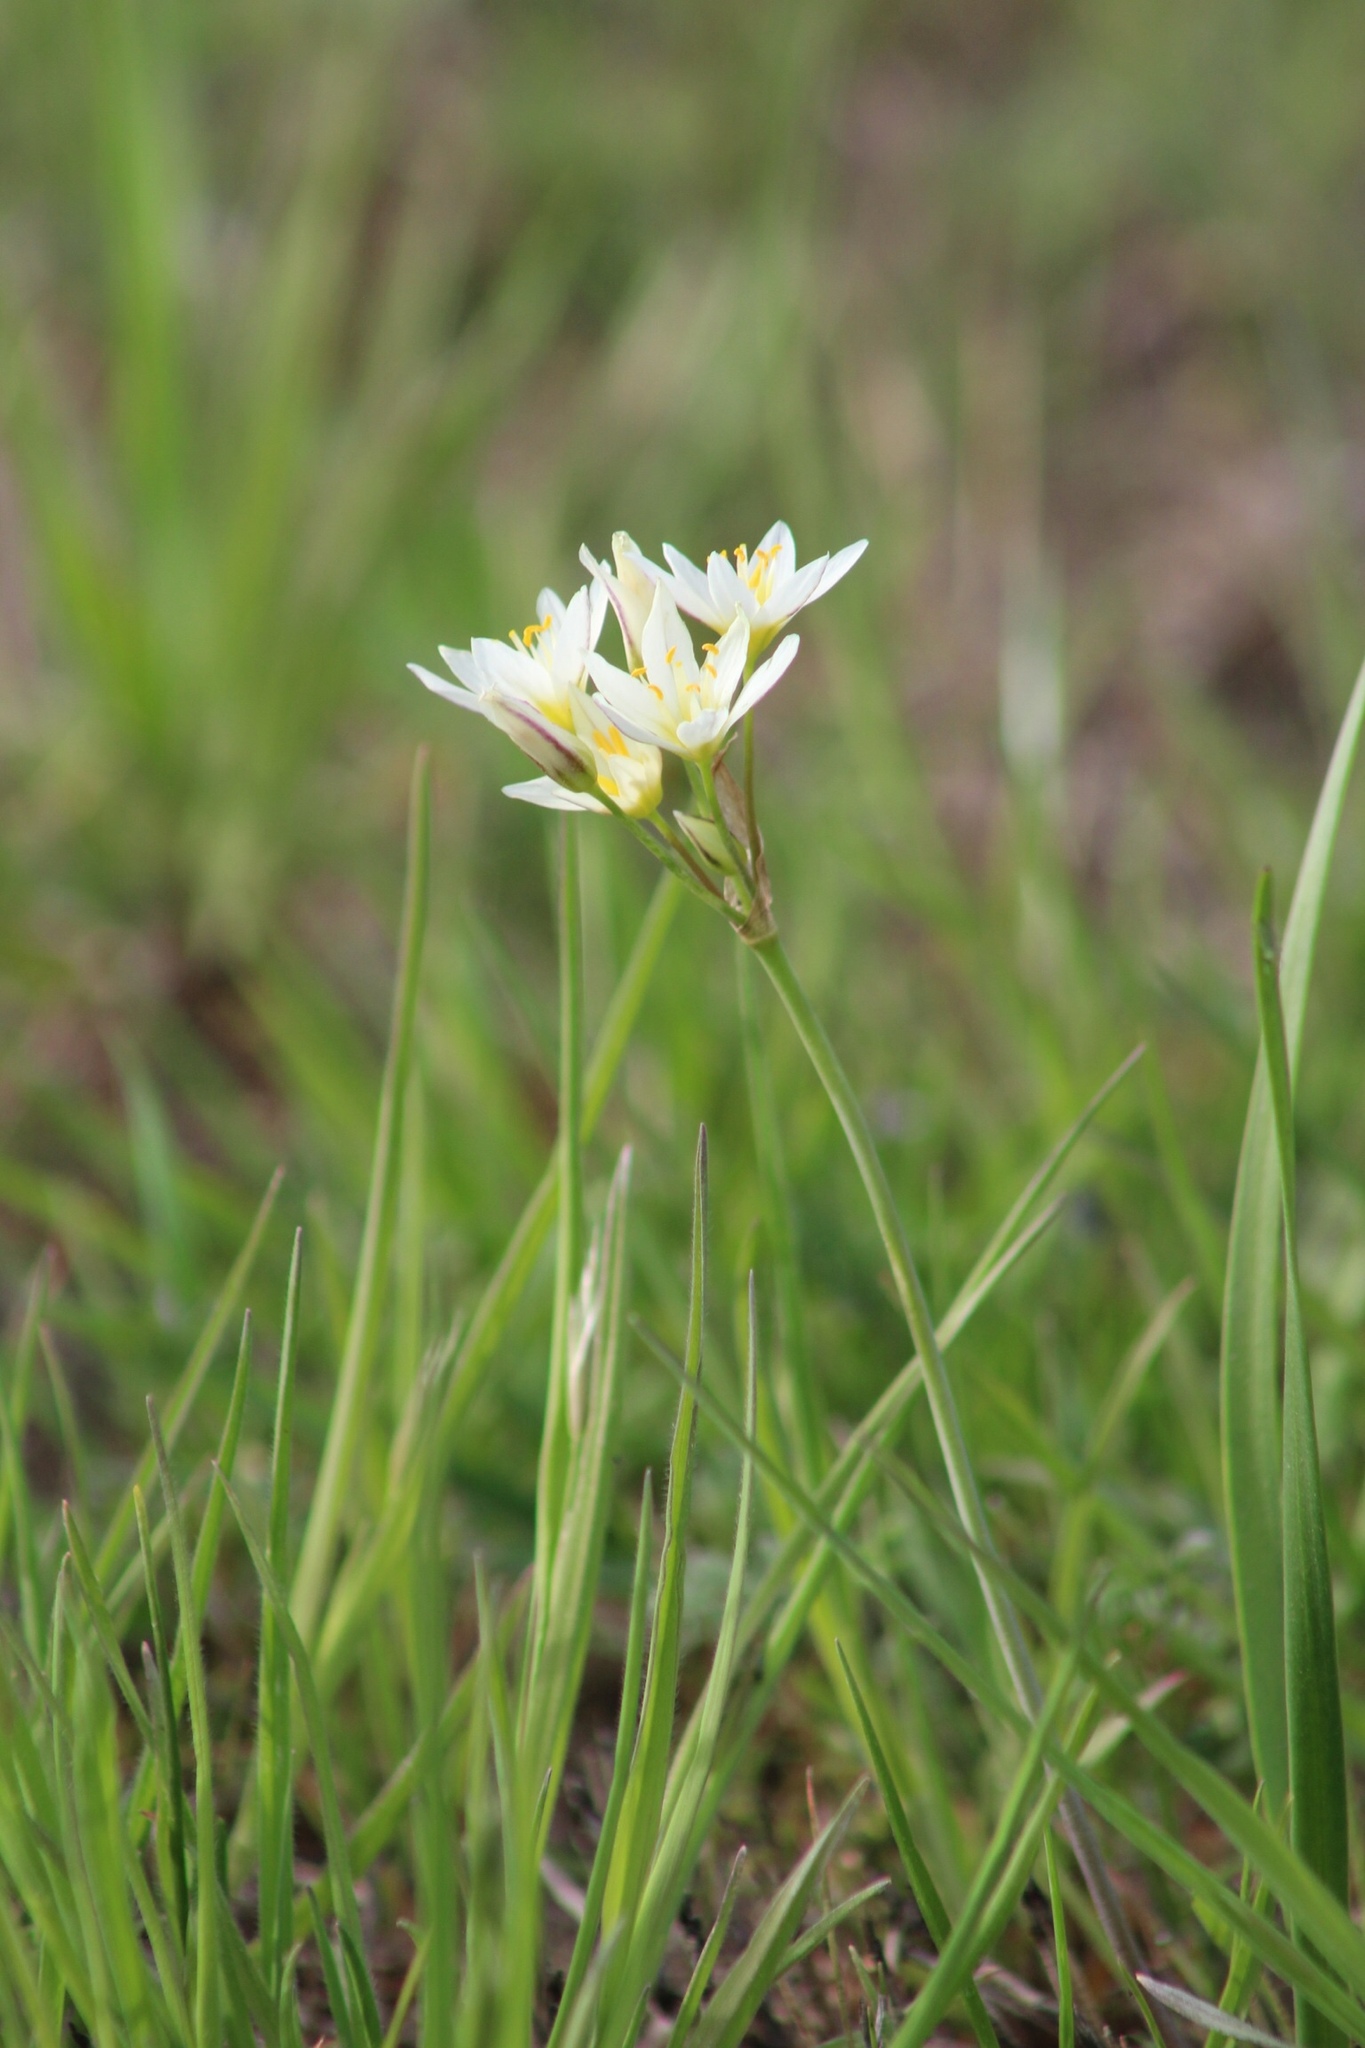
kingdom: Plantae
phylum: Tracheophyta
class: Liliopsida
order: Asparagales
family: Amaryllidaceae
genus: Nothoscordum
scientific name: Nothoscordum bivalve
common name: Crow-poison
